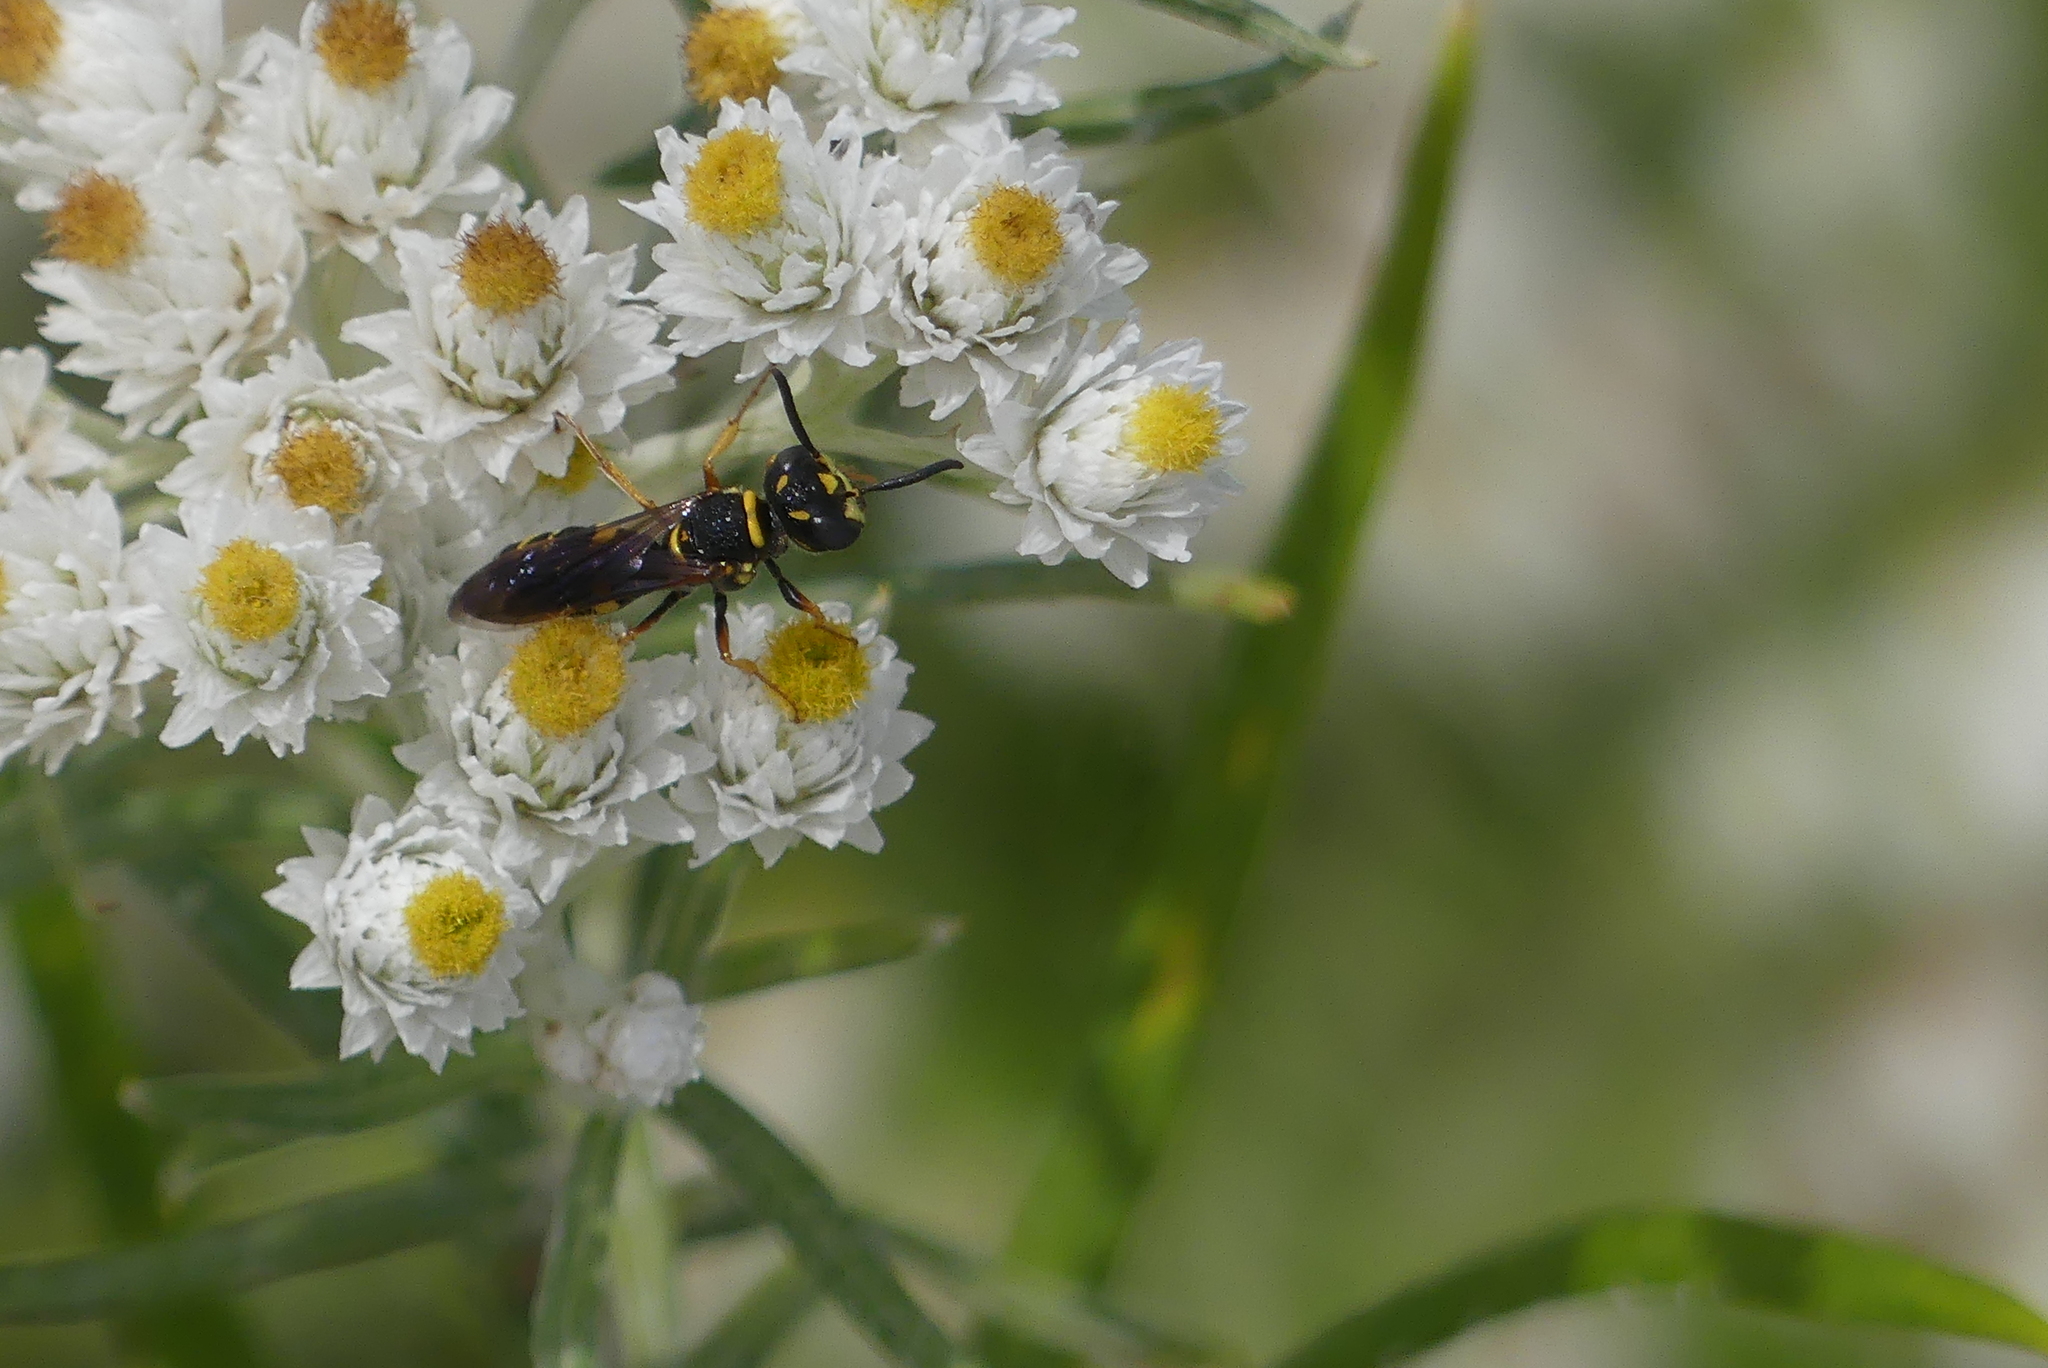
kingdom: Animalia
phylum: Arthropoda
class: Insecta
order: Hymenoptera
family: Crabronidae
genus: Philanthus
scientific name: Philanthus gibbosus
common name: Humped beewolf
